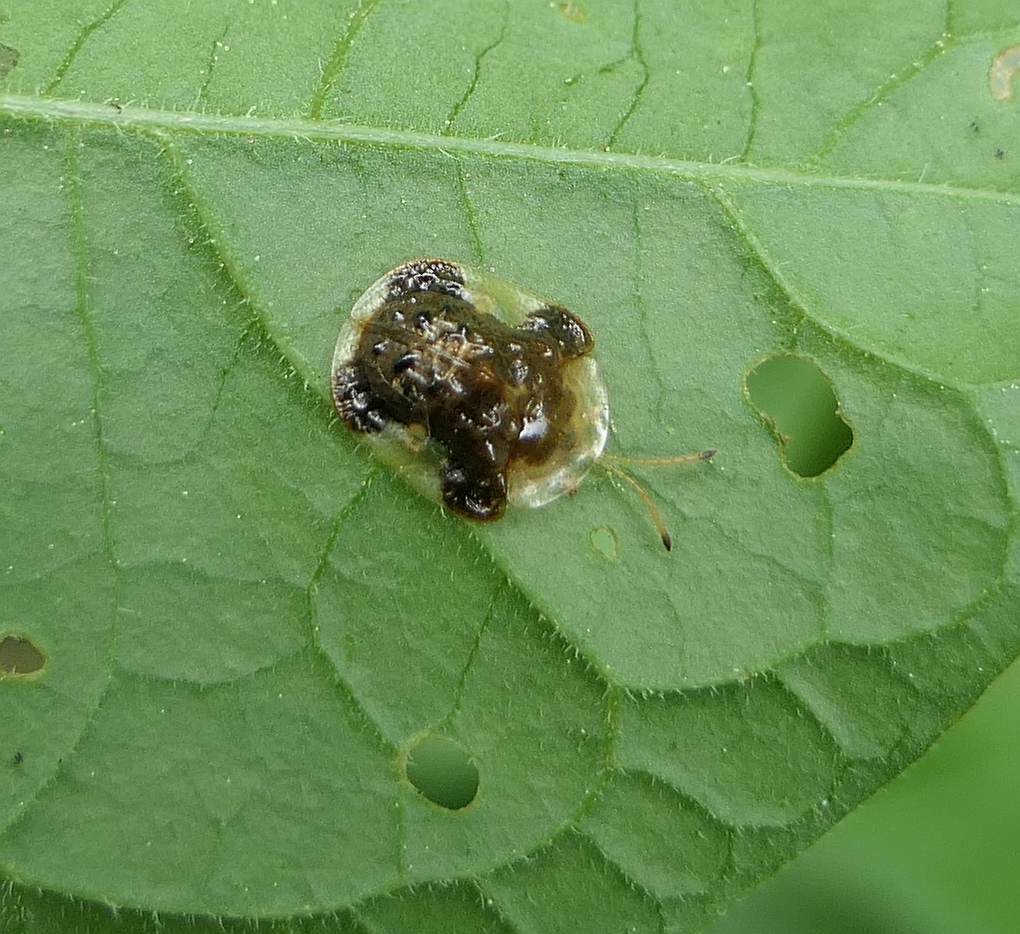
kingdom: Animalia
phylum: Arthropoda
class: Insecta
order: Coleoptera
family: Chrysomelidae
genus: Helocassis
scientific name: Helocassis clavata
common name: Clavate tortoise beetle
